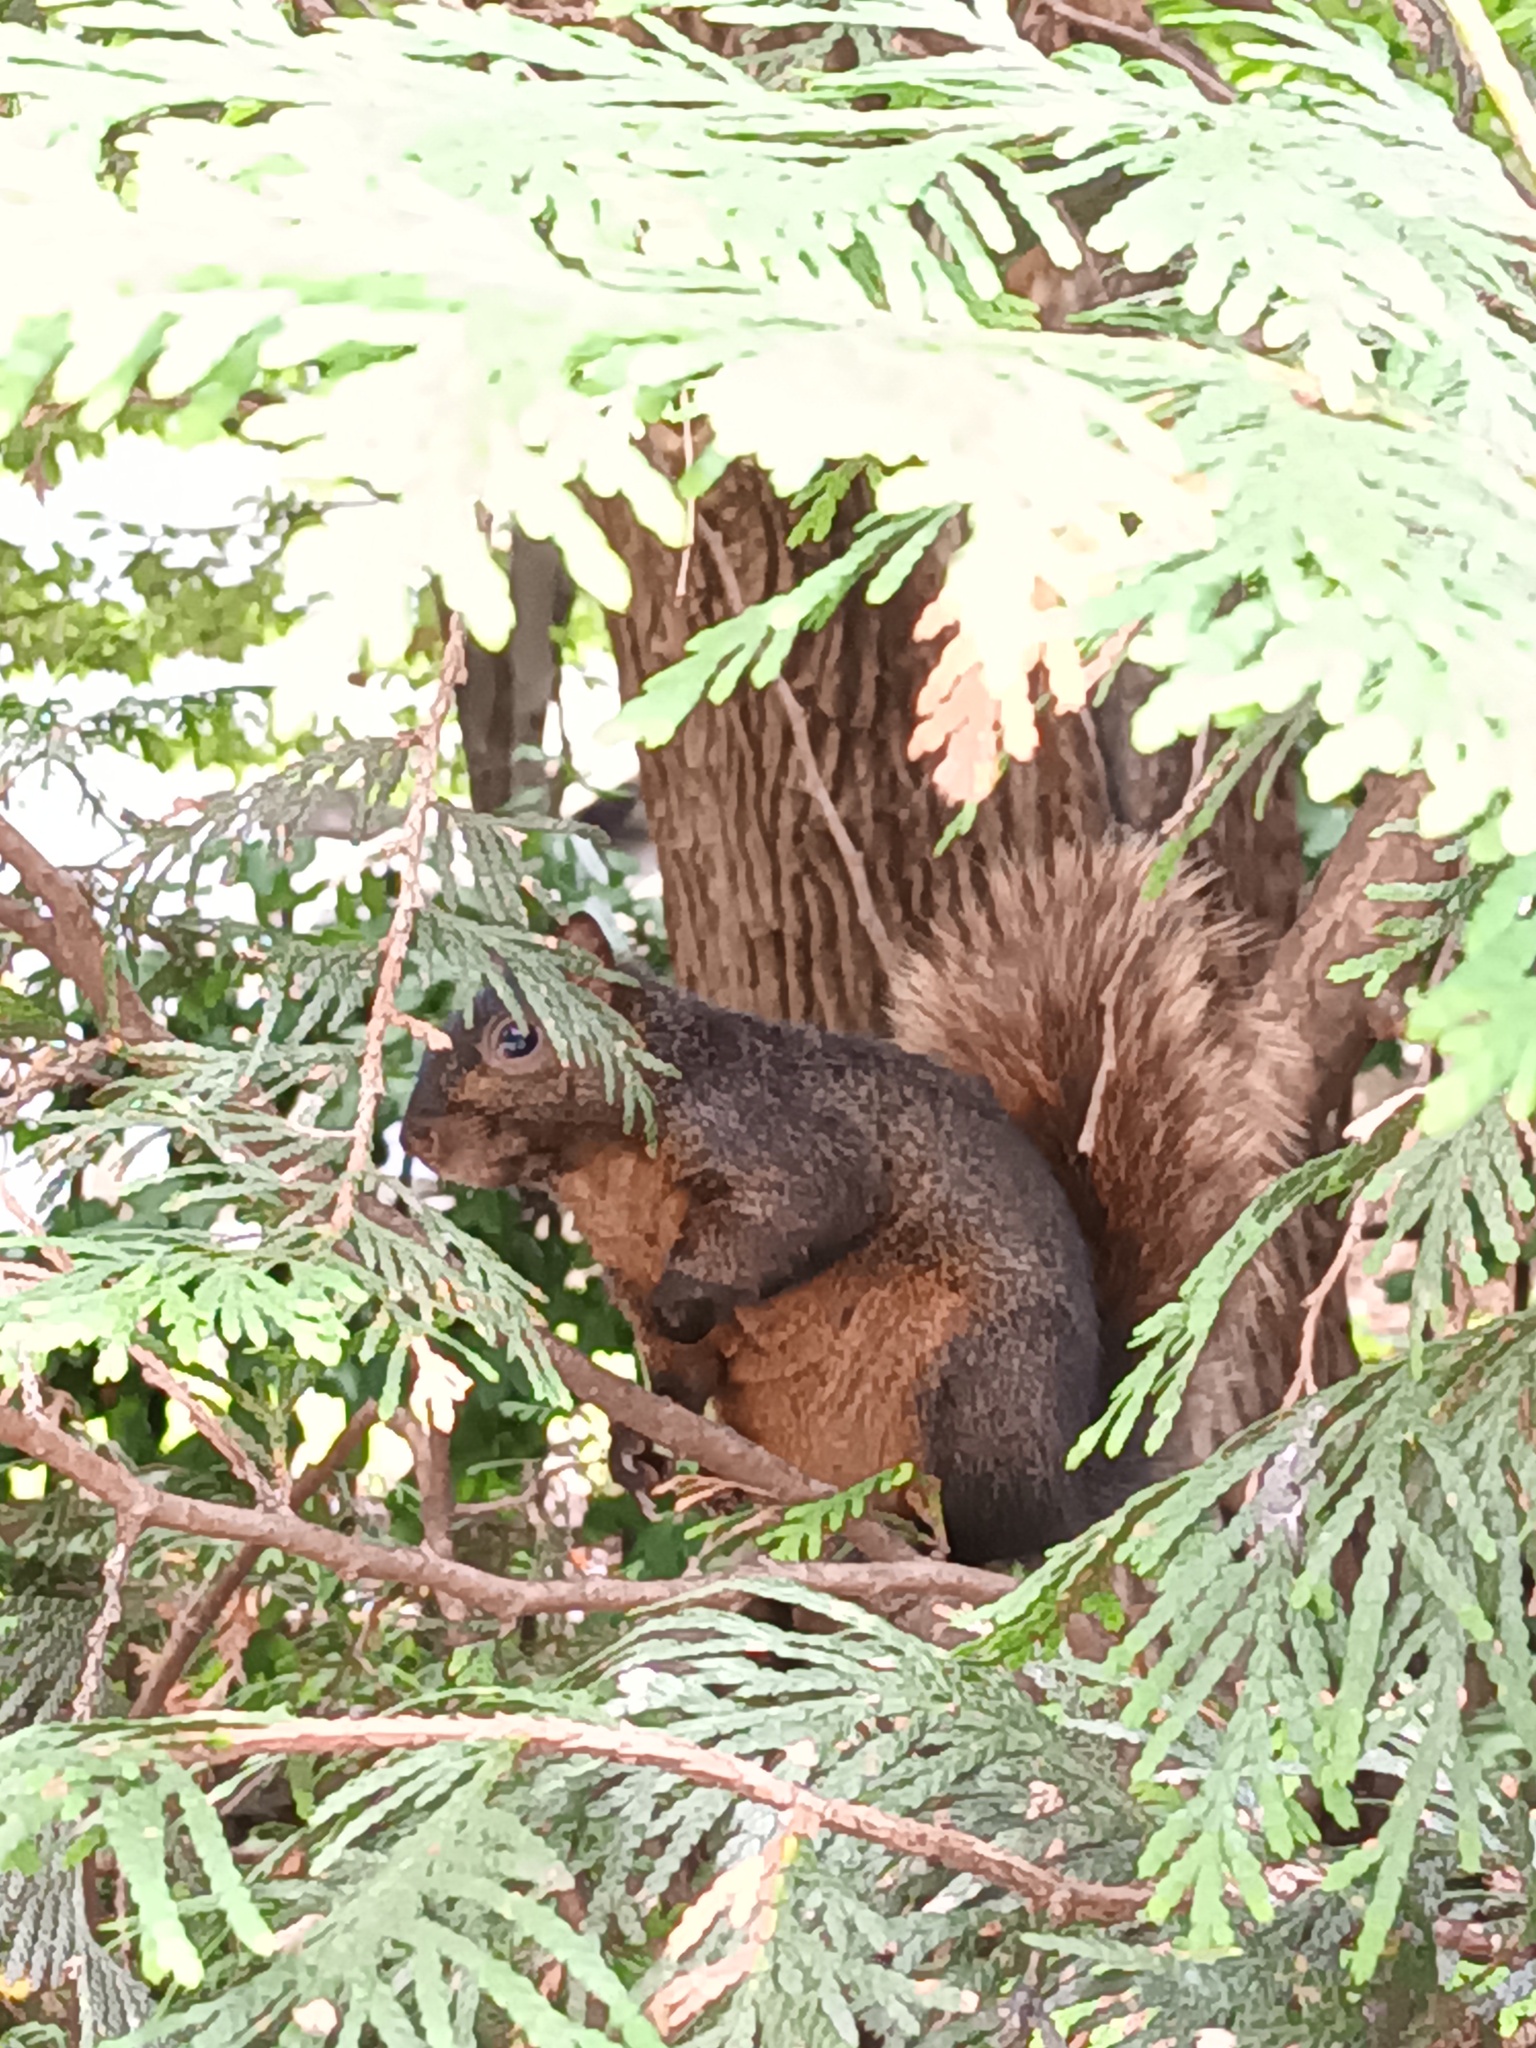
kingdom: Animalia
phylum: Chordata
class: Mammalia
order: Rodentia
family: Sciuridae
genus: Sciurus
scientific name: Sciurus carolinensis
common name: Eastern gray squirrel
